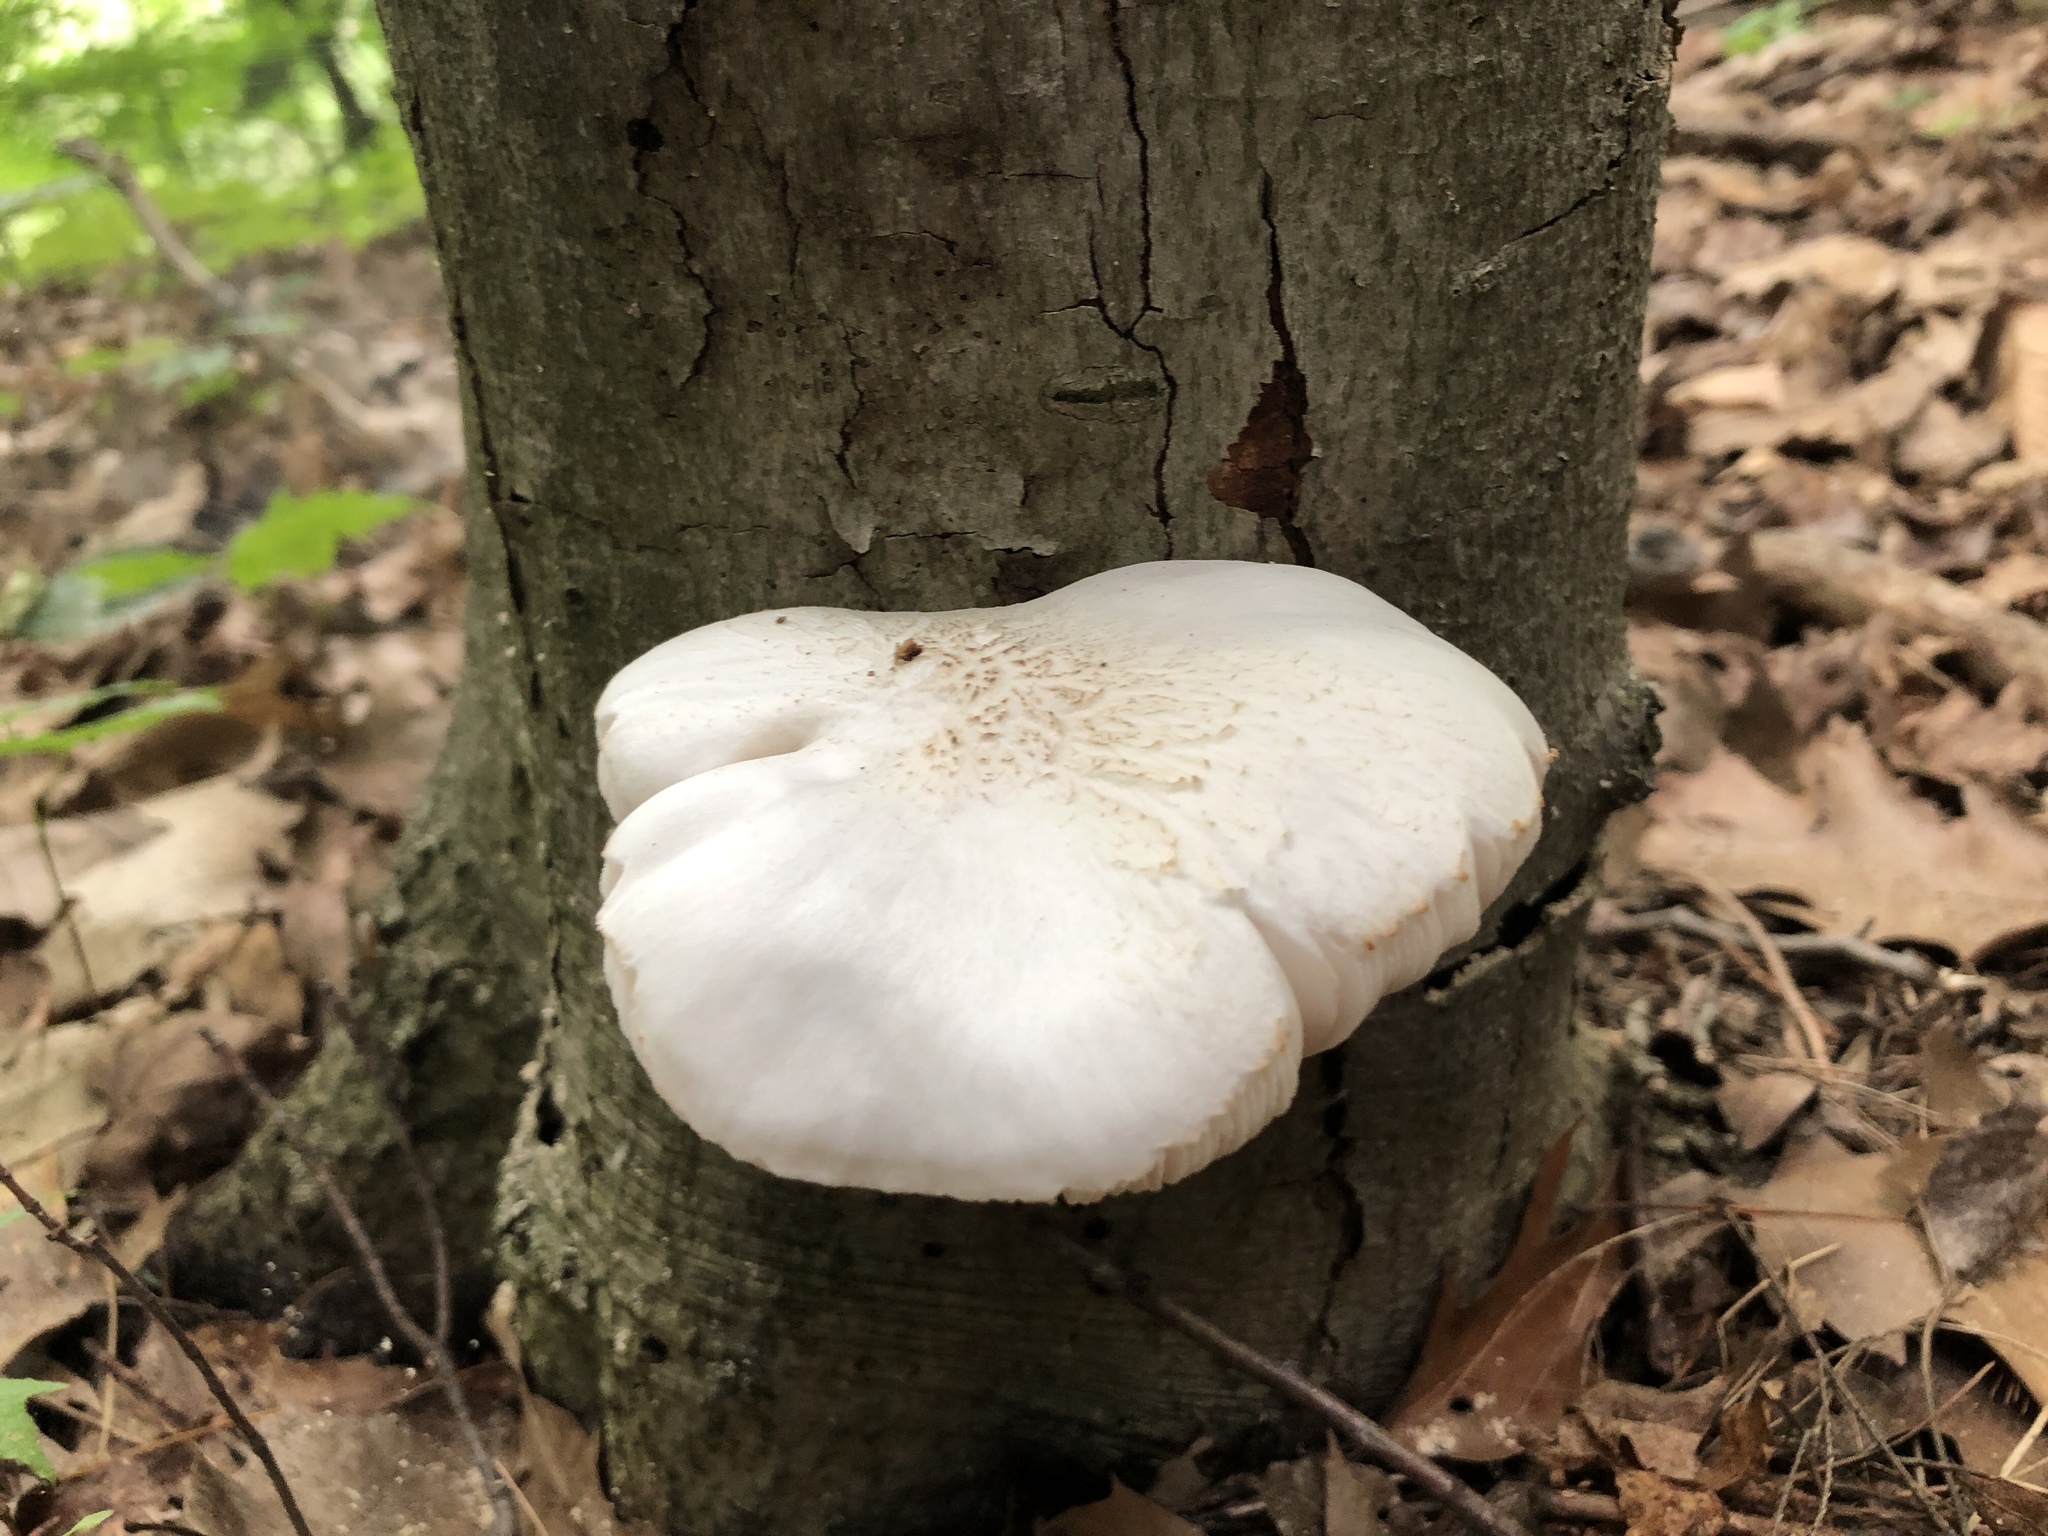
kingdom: Fungi
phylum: Basidiomycota
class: Agaricomycetes
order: Agaricales
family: Pluteaceae
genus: Pluteus
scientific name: Pluteus petasatus
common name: Scaly shield
